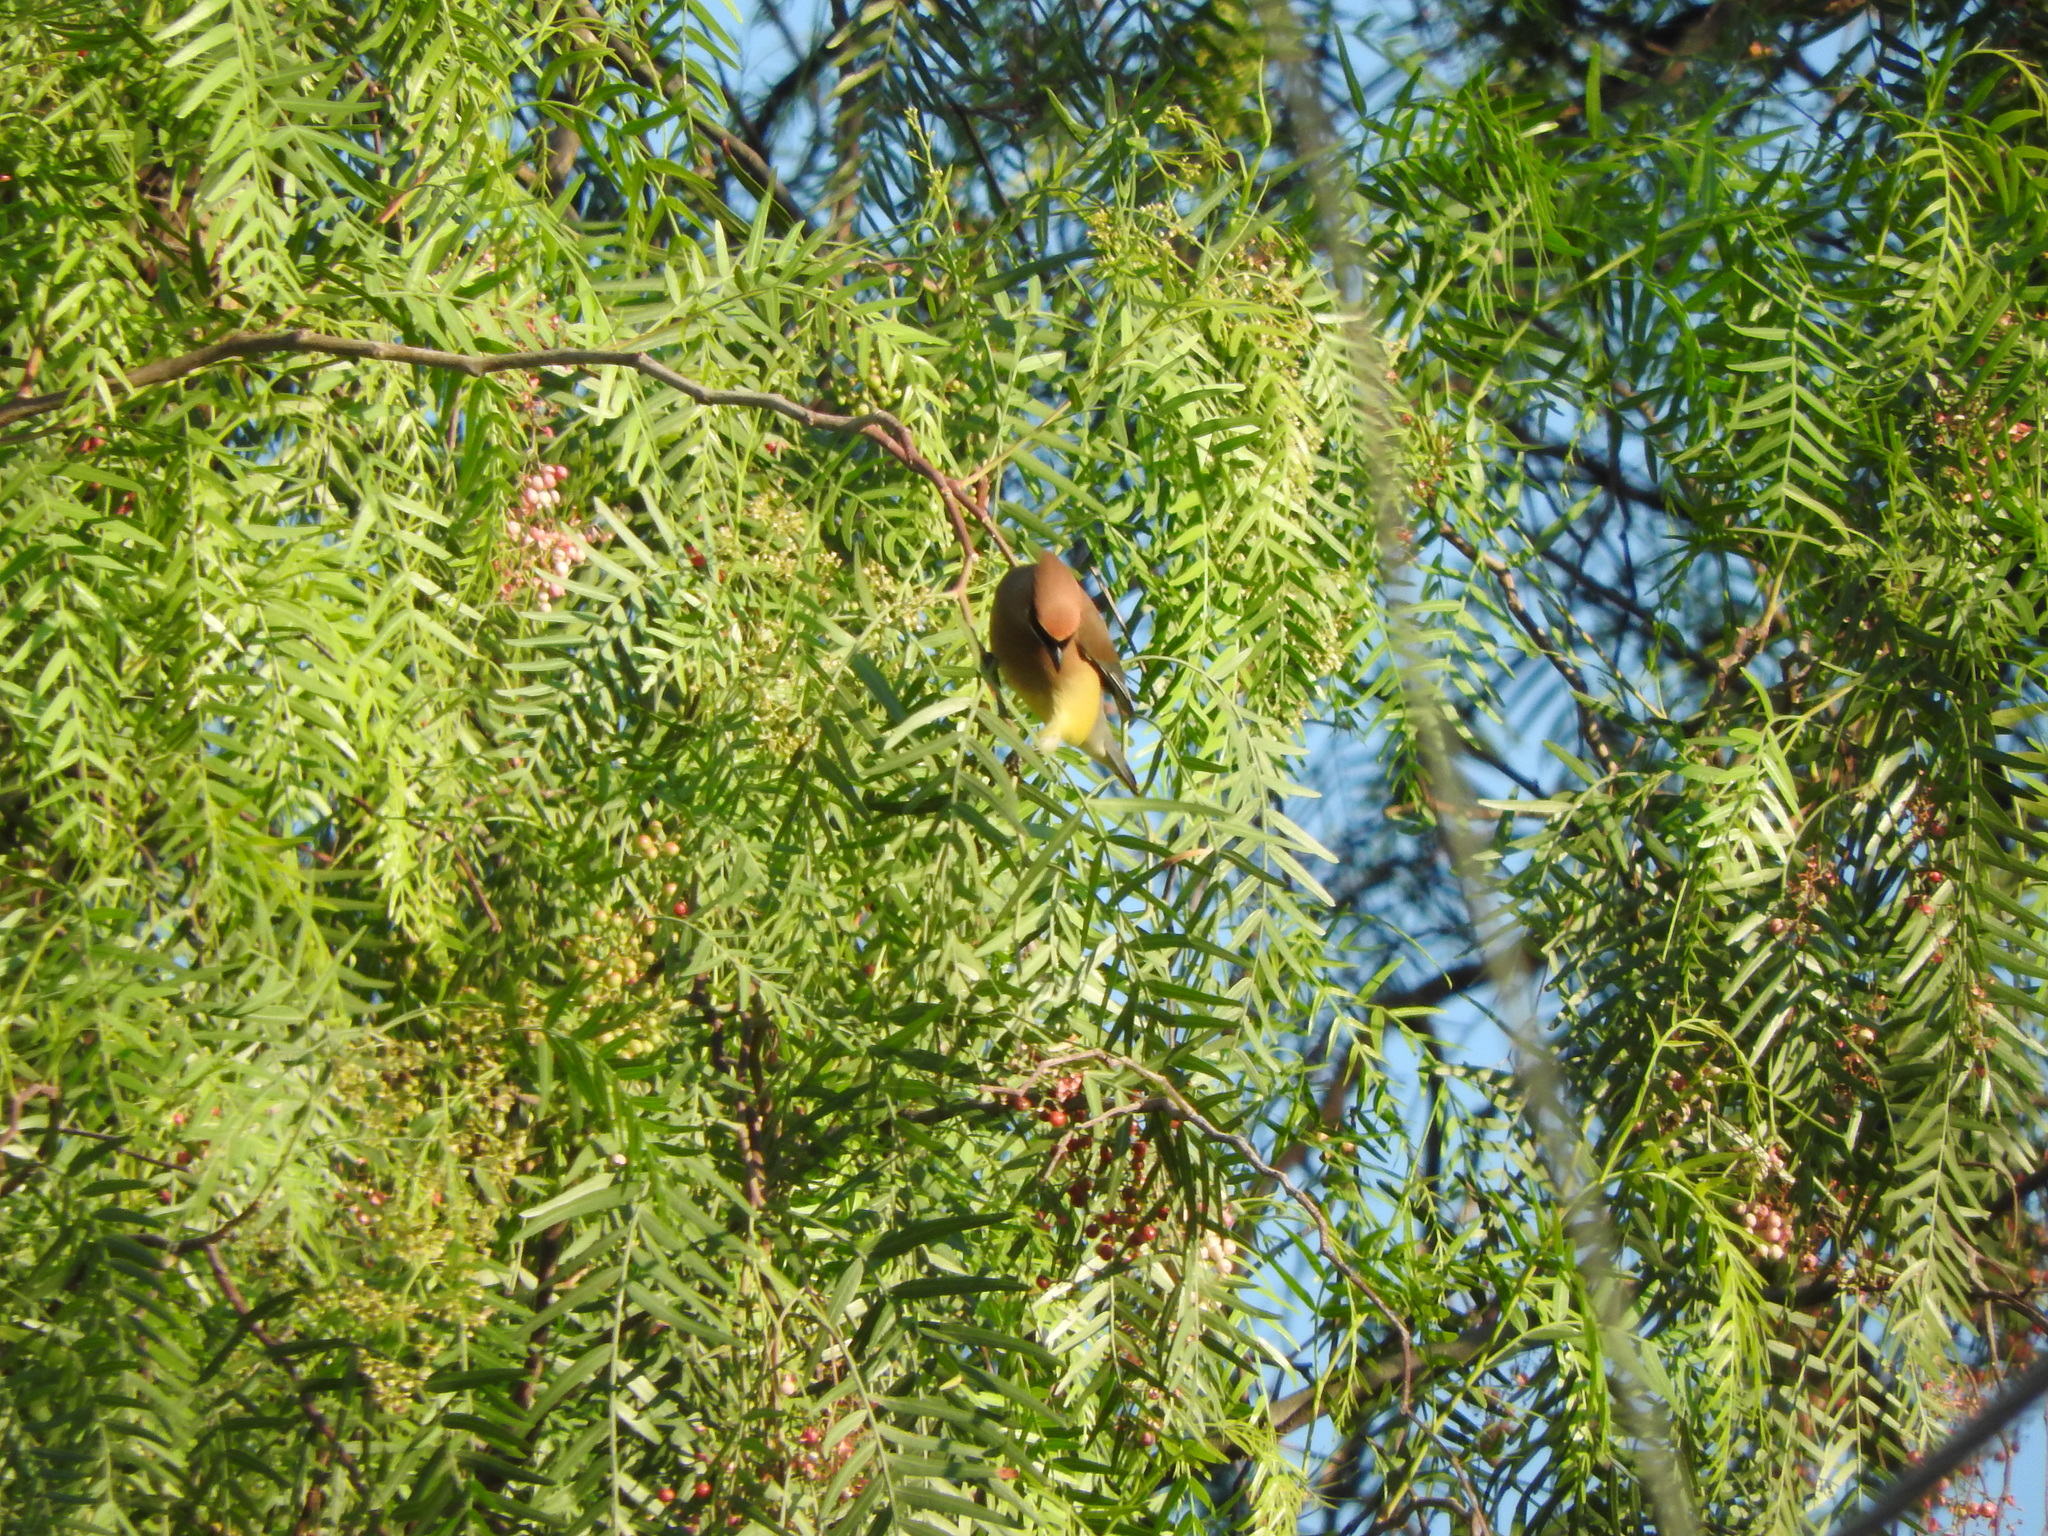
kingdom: Animalia
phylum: Chordata
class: Aves
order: Passeriformes
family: Bombycillidae
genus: Bombycilla
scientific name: Bombycilla cedrorum
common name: Cedar waxwing
